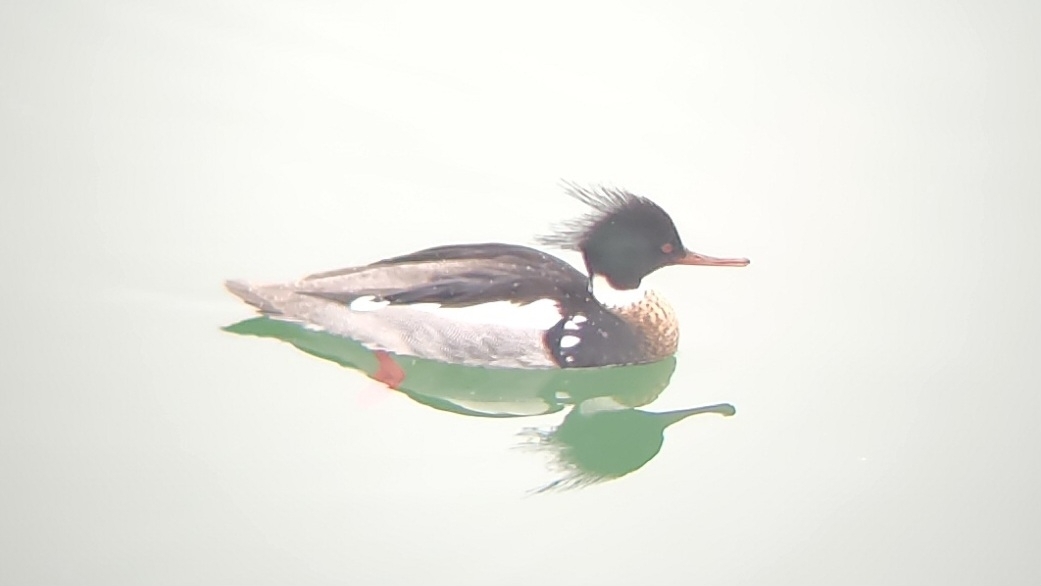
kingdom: Animalia
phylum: Chordata
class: Aves
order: Anseriformes
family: Anatidae
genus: Mergus
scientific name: Mergus serrator
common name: Red-breasted merganser
